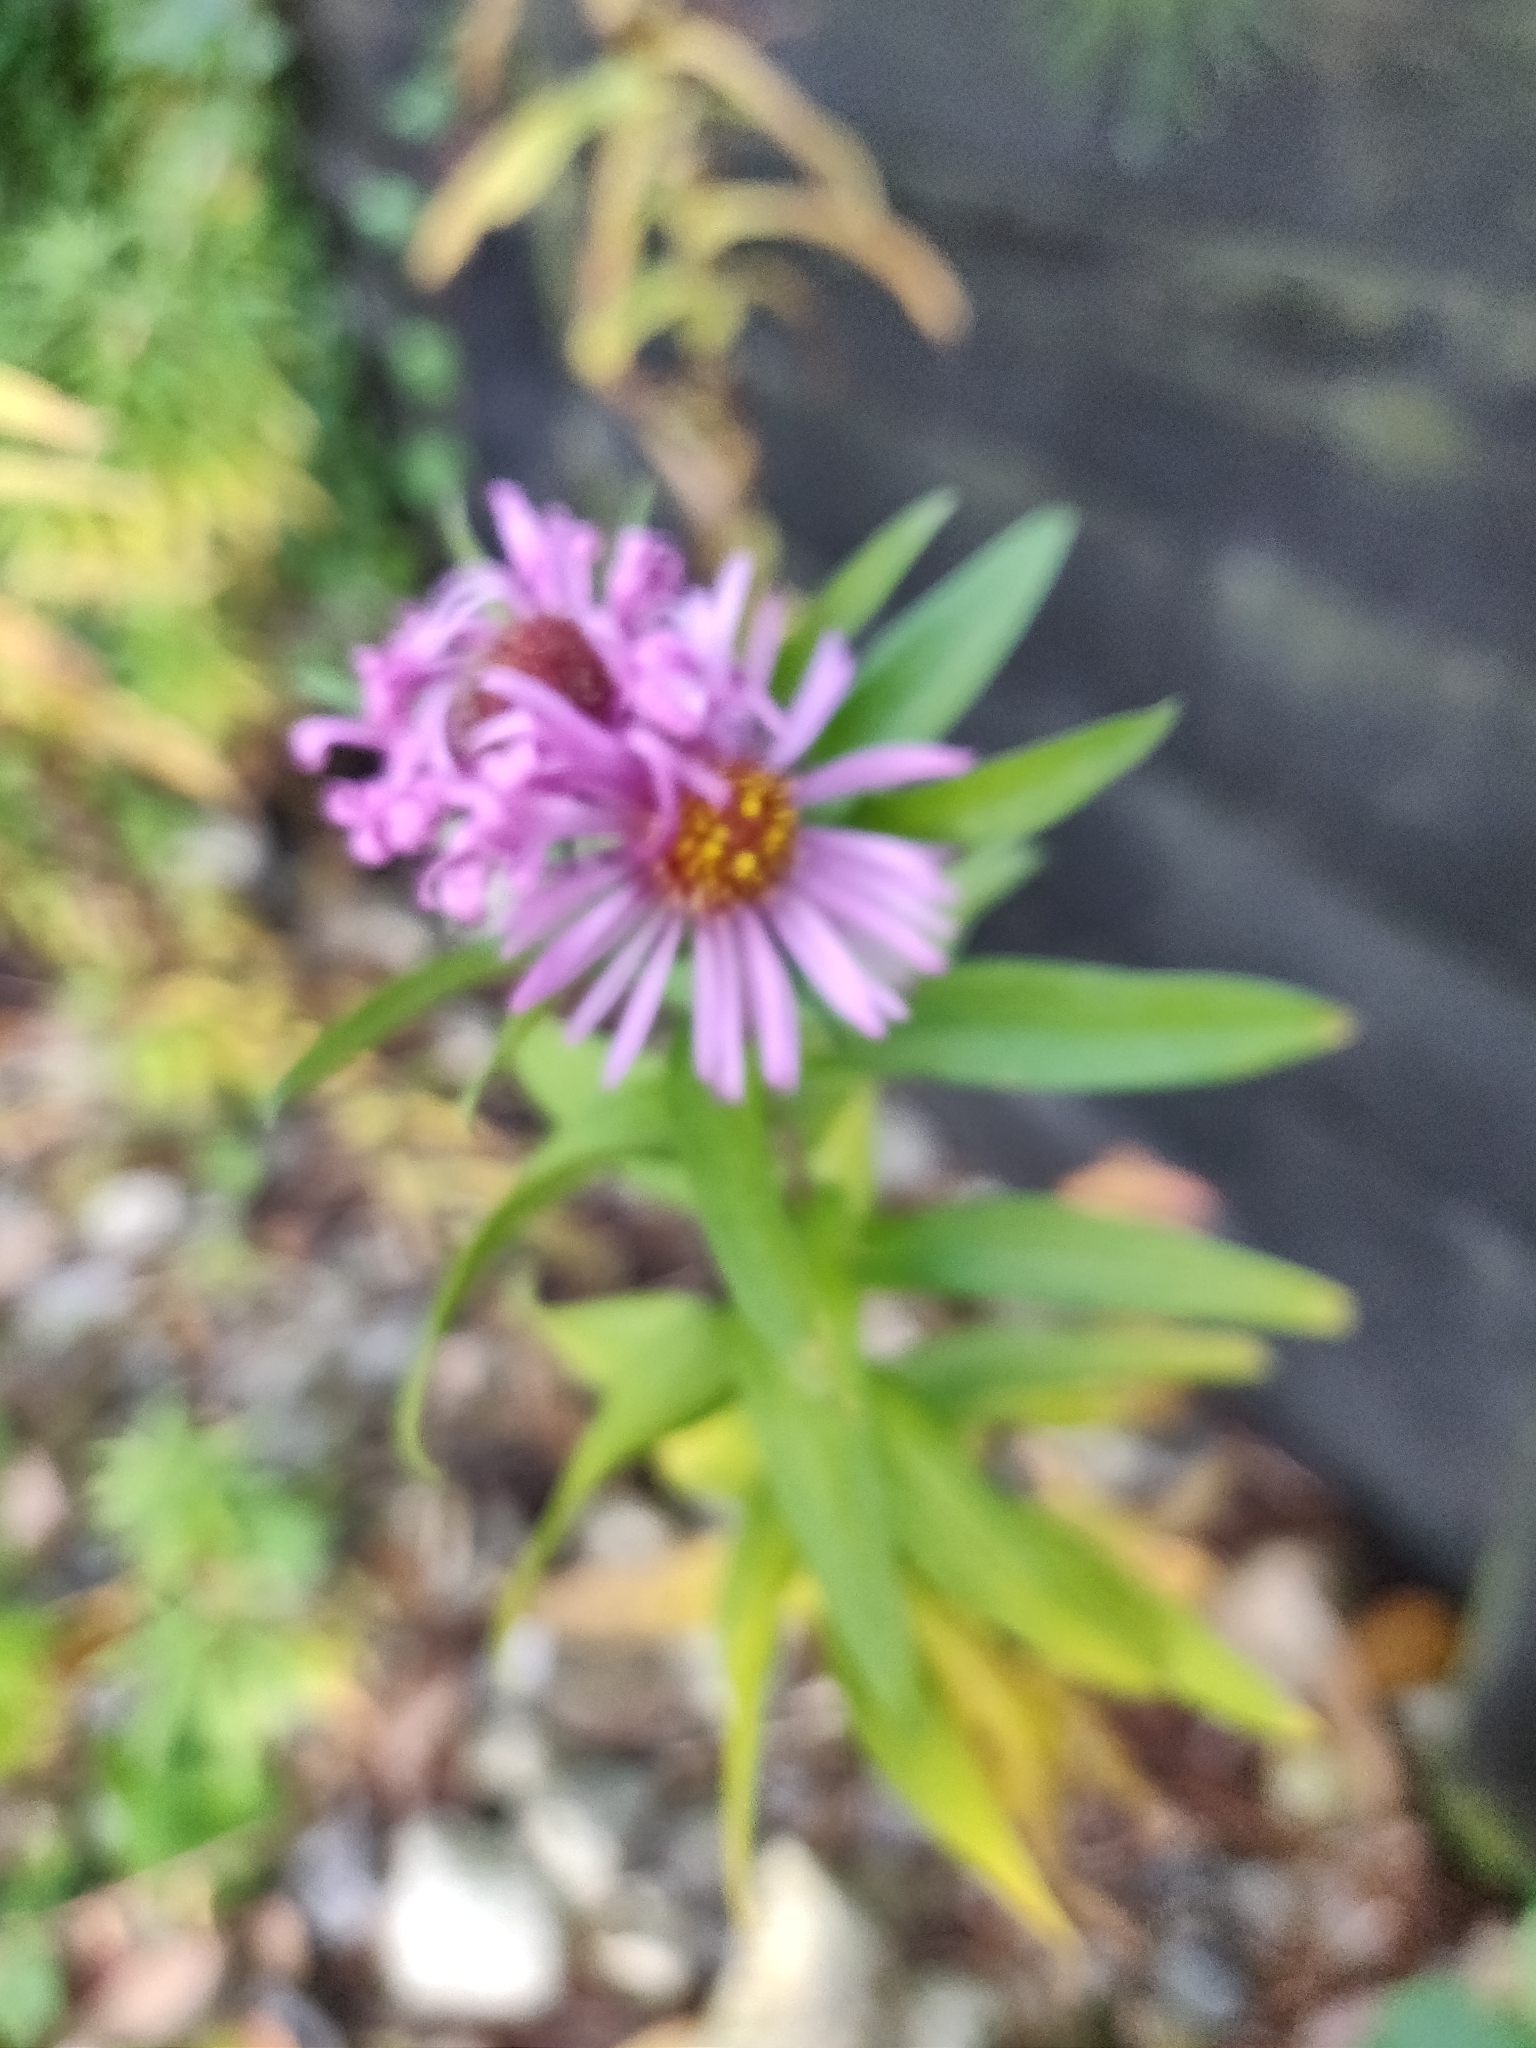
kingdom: Plantae
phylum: Tracheophyta
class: Magnoliopsida
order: Asterales
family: Asteraceae
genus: Symphyotrichum
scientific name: Symphyotrichum novi-belgii
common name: Michaelmas daisy
